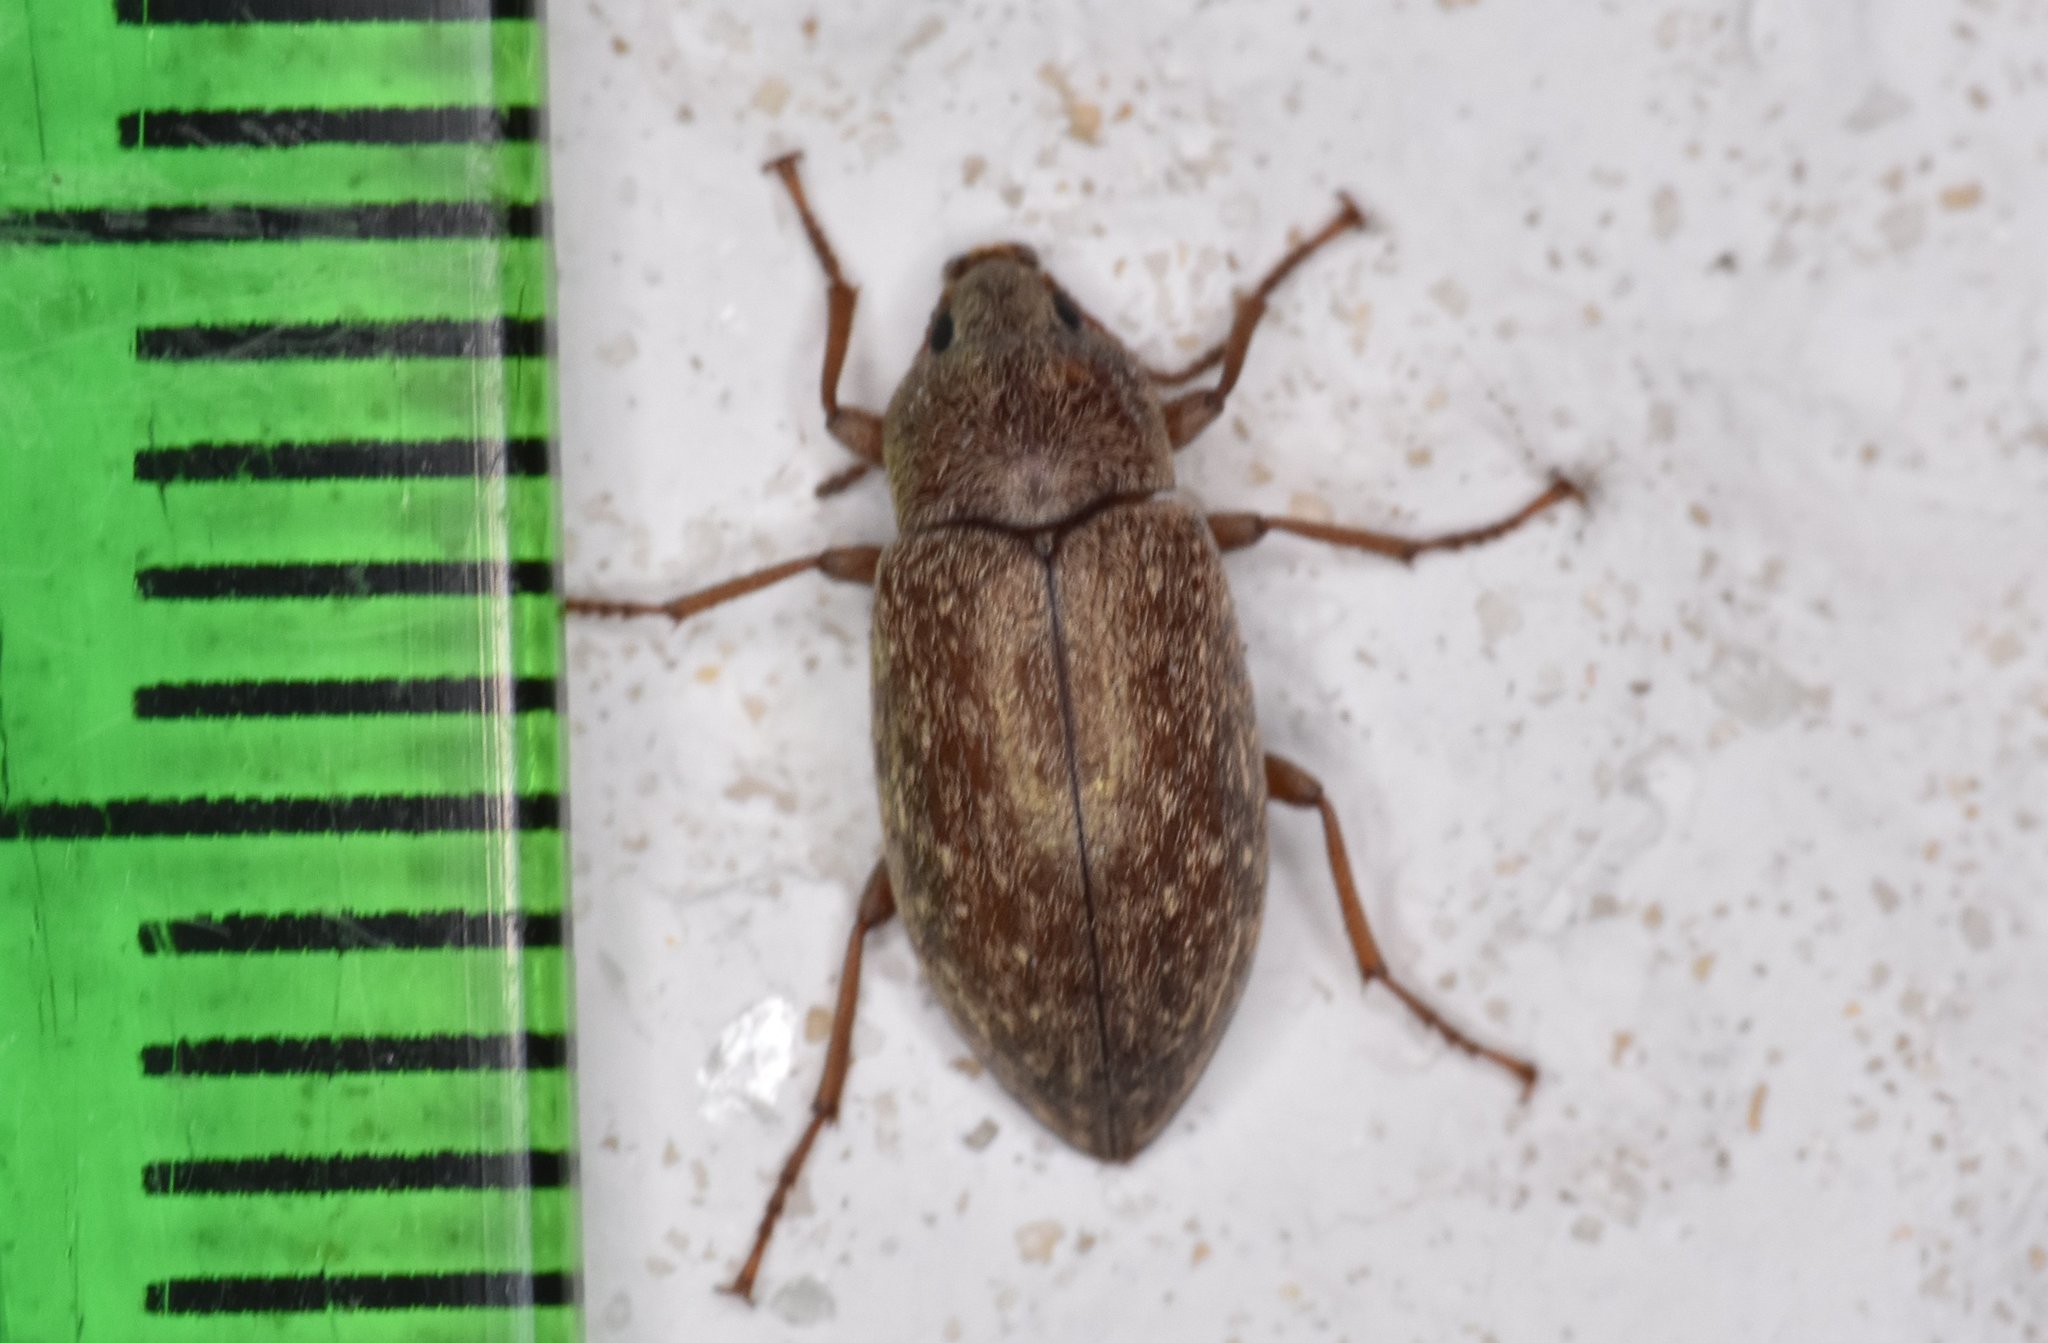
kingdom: Animalia
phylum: Arthropoda
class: Insecta
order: Coleoptera
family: Tenebrionidae
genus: Epitragodes
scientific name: Epitragodes tomentosus
